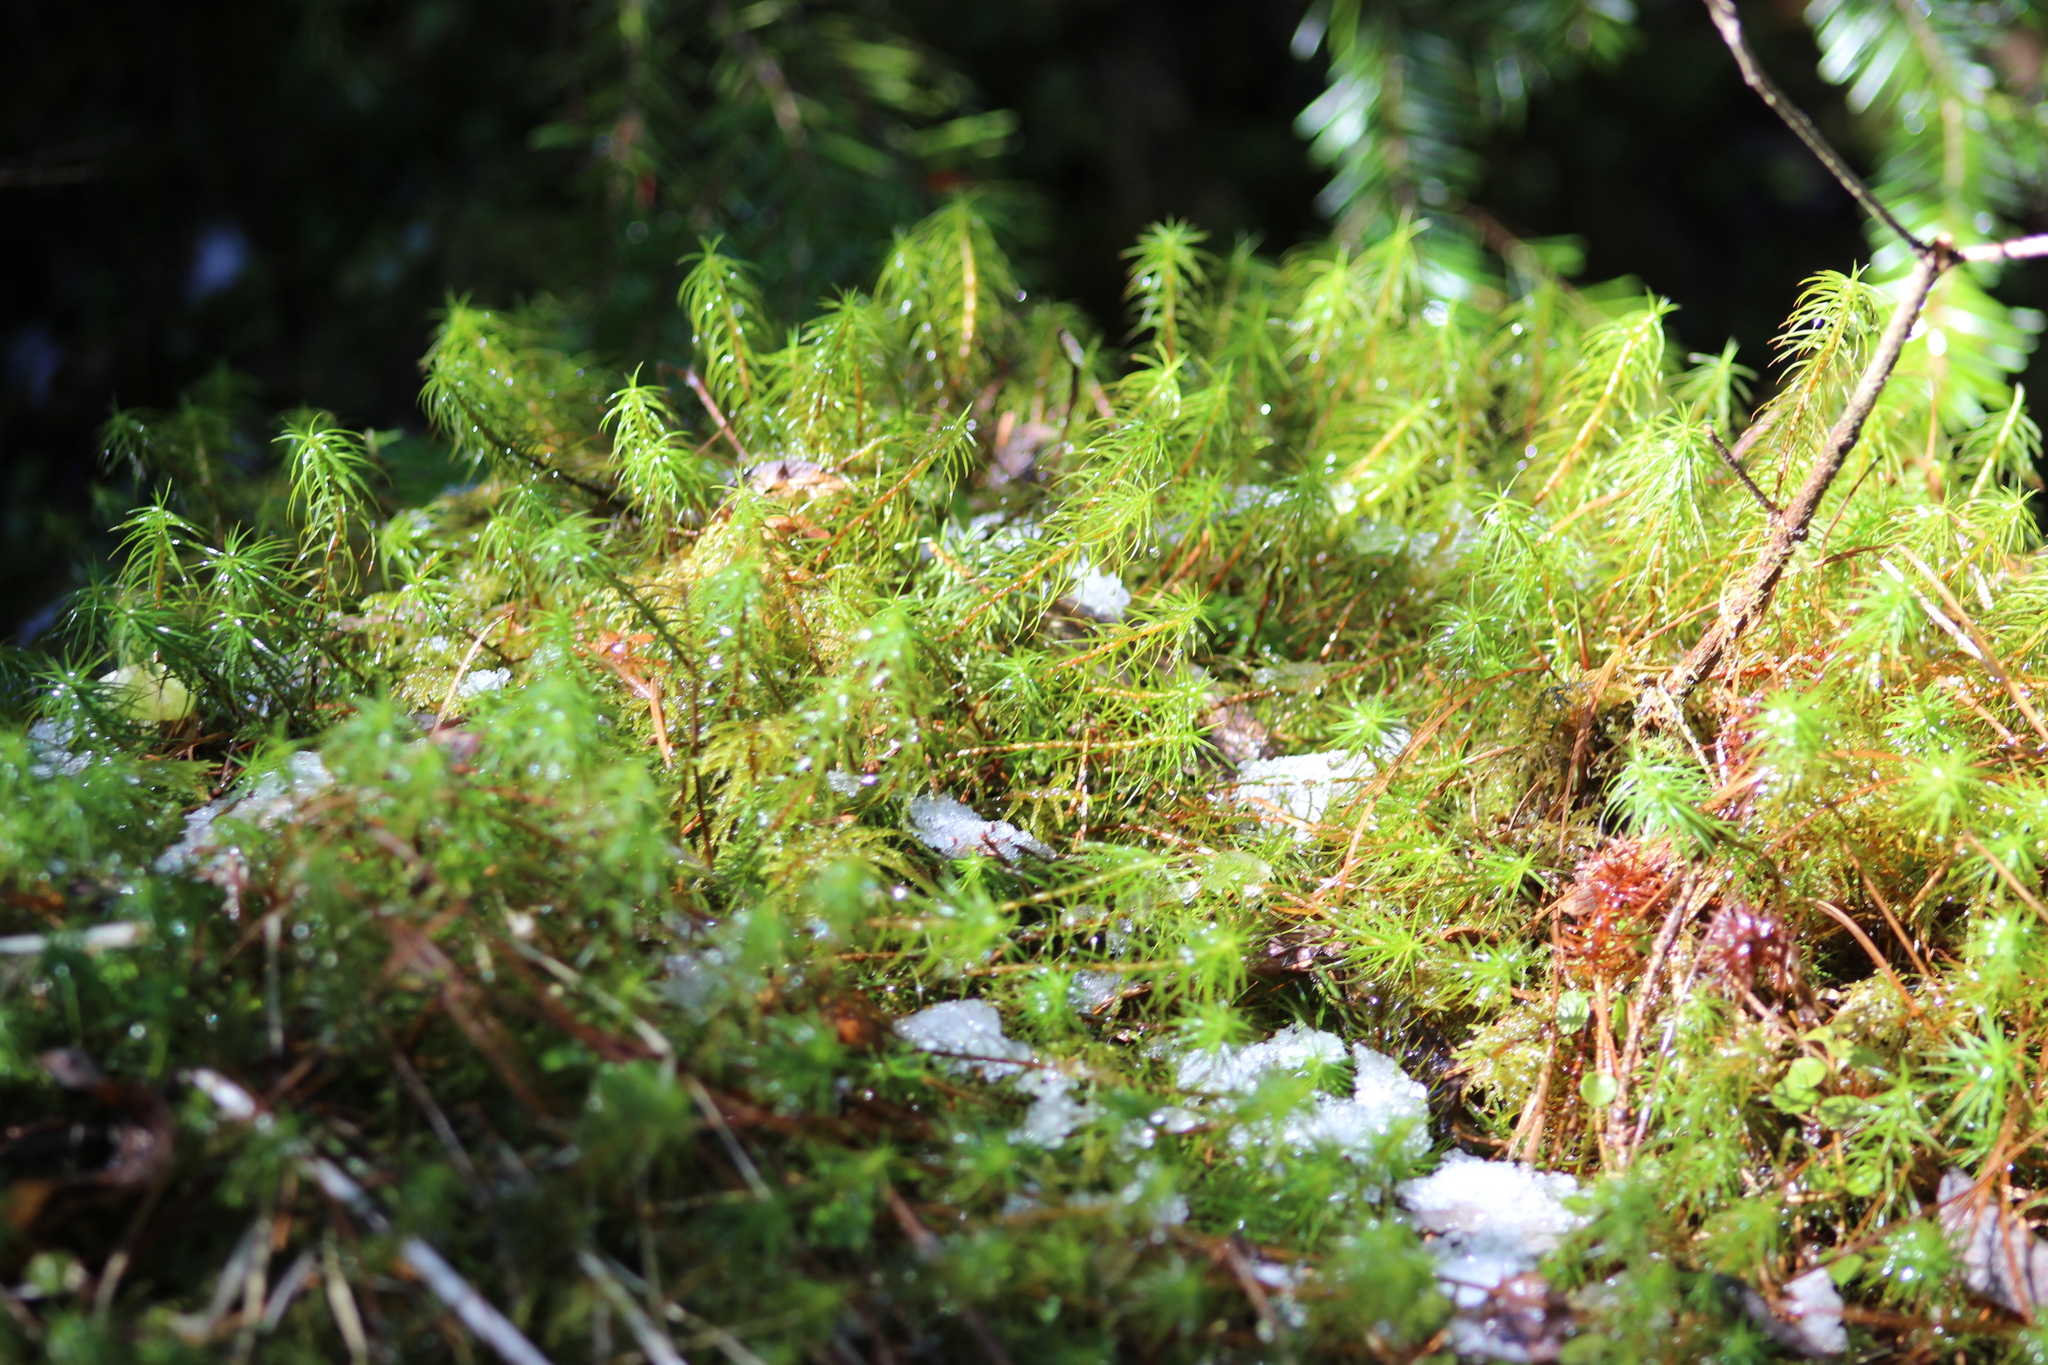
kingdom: Plantae
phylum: Bryophyta
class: Polytrichopsida
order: Polytrichales
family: Polytrichaceae
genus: Polytrichum
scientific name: Polytrichum commune
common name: Common haircap
